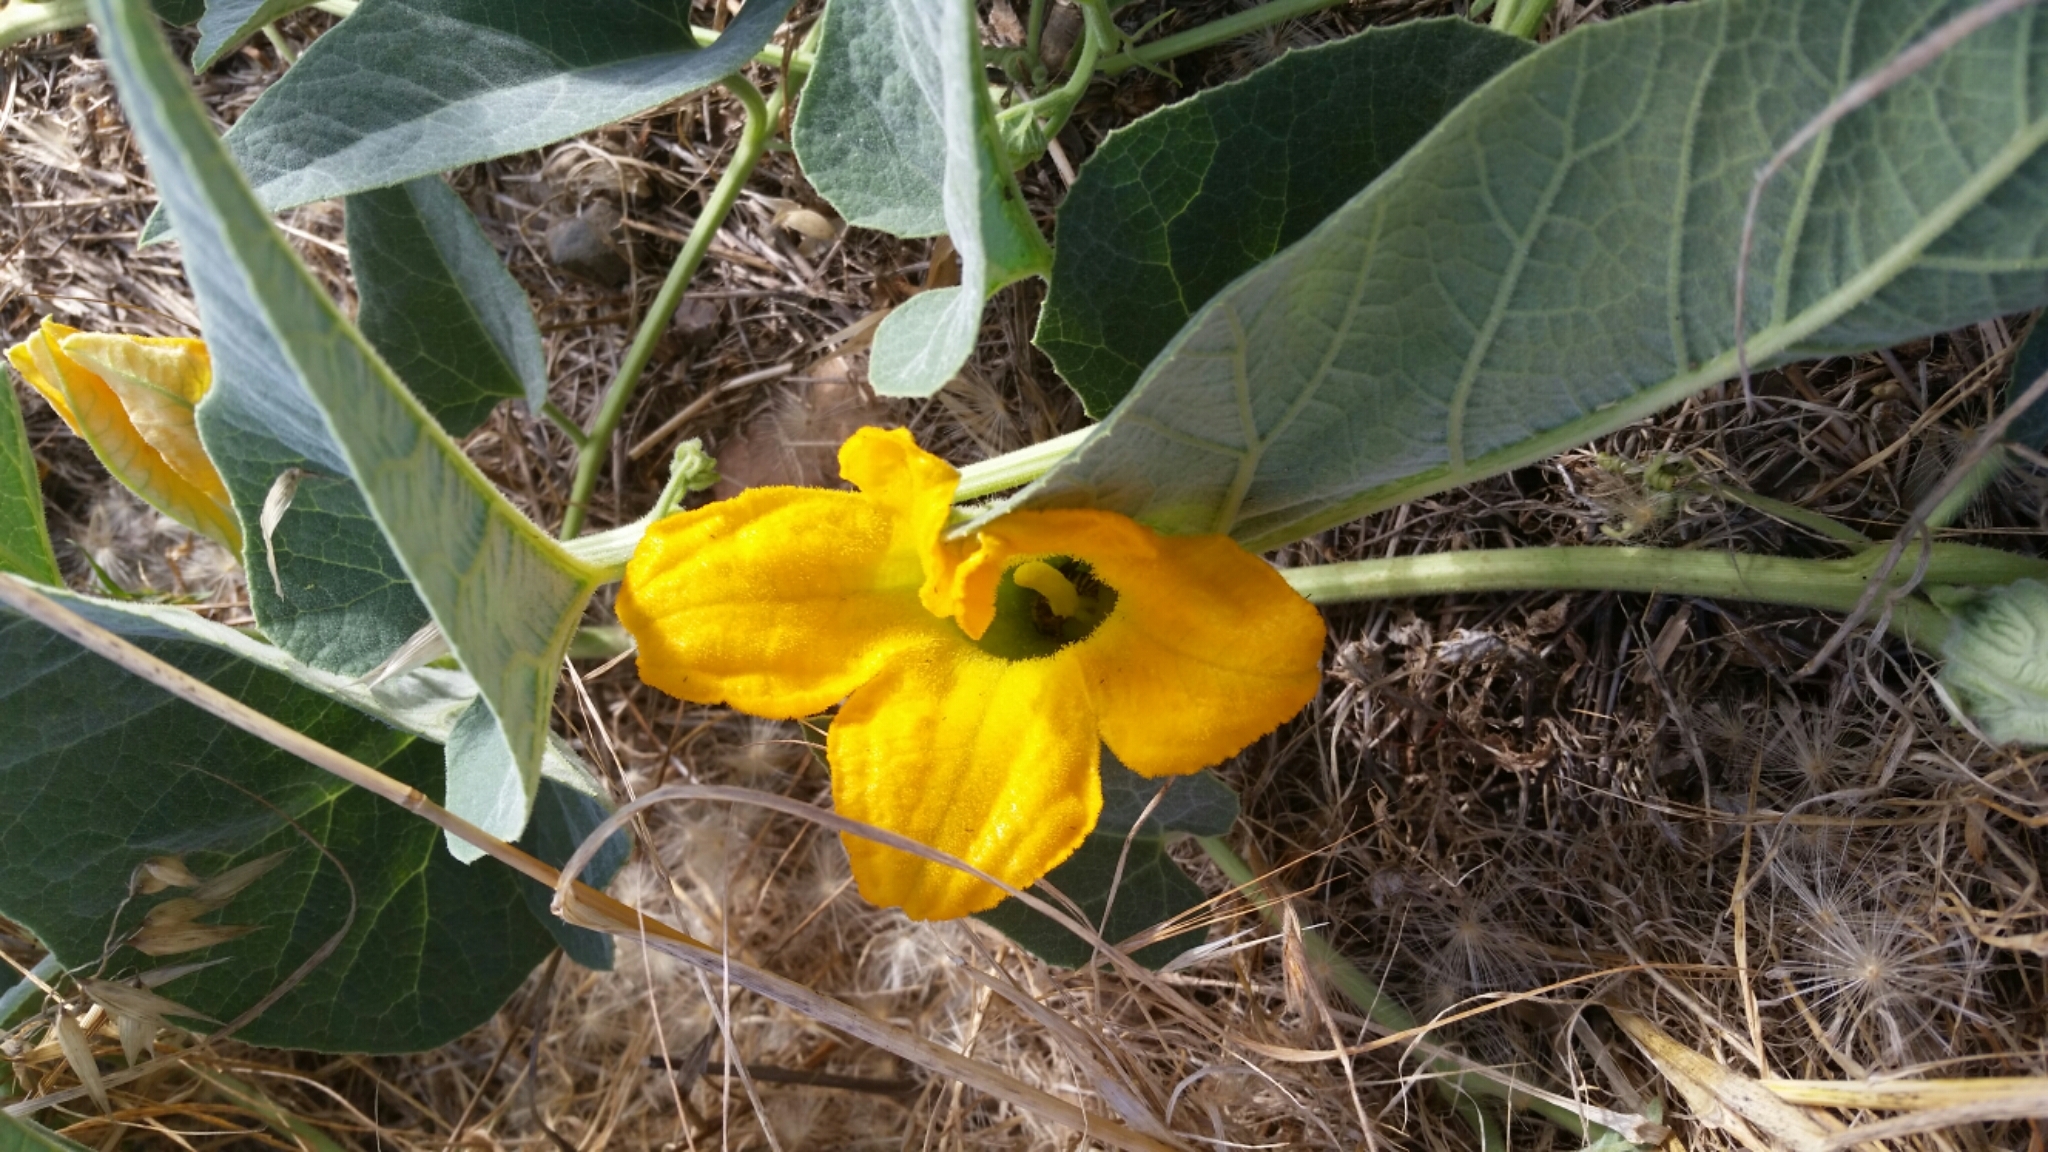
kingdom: Plantae
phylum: Tracheophyta
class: Magnoliopsida
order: Cucurbitales
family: Cucurbitaceae
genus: Cucurbita
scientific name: Cucurbita foetidissima
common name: Buffalo gourd
